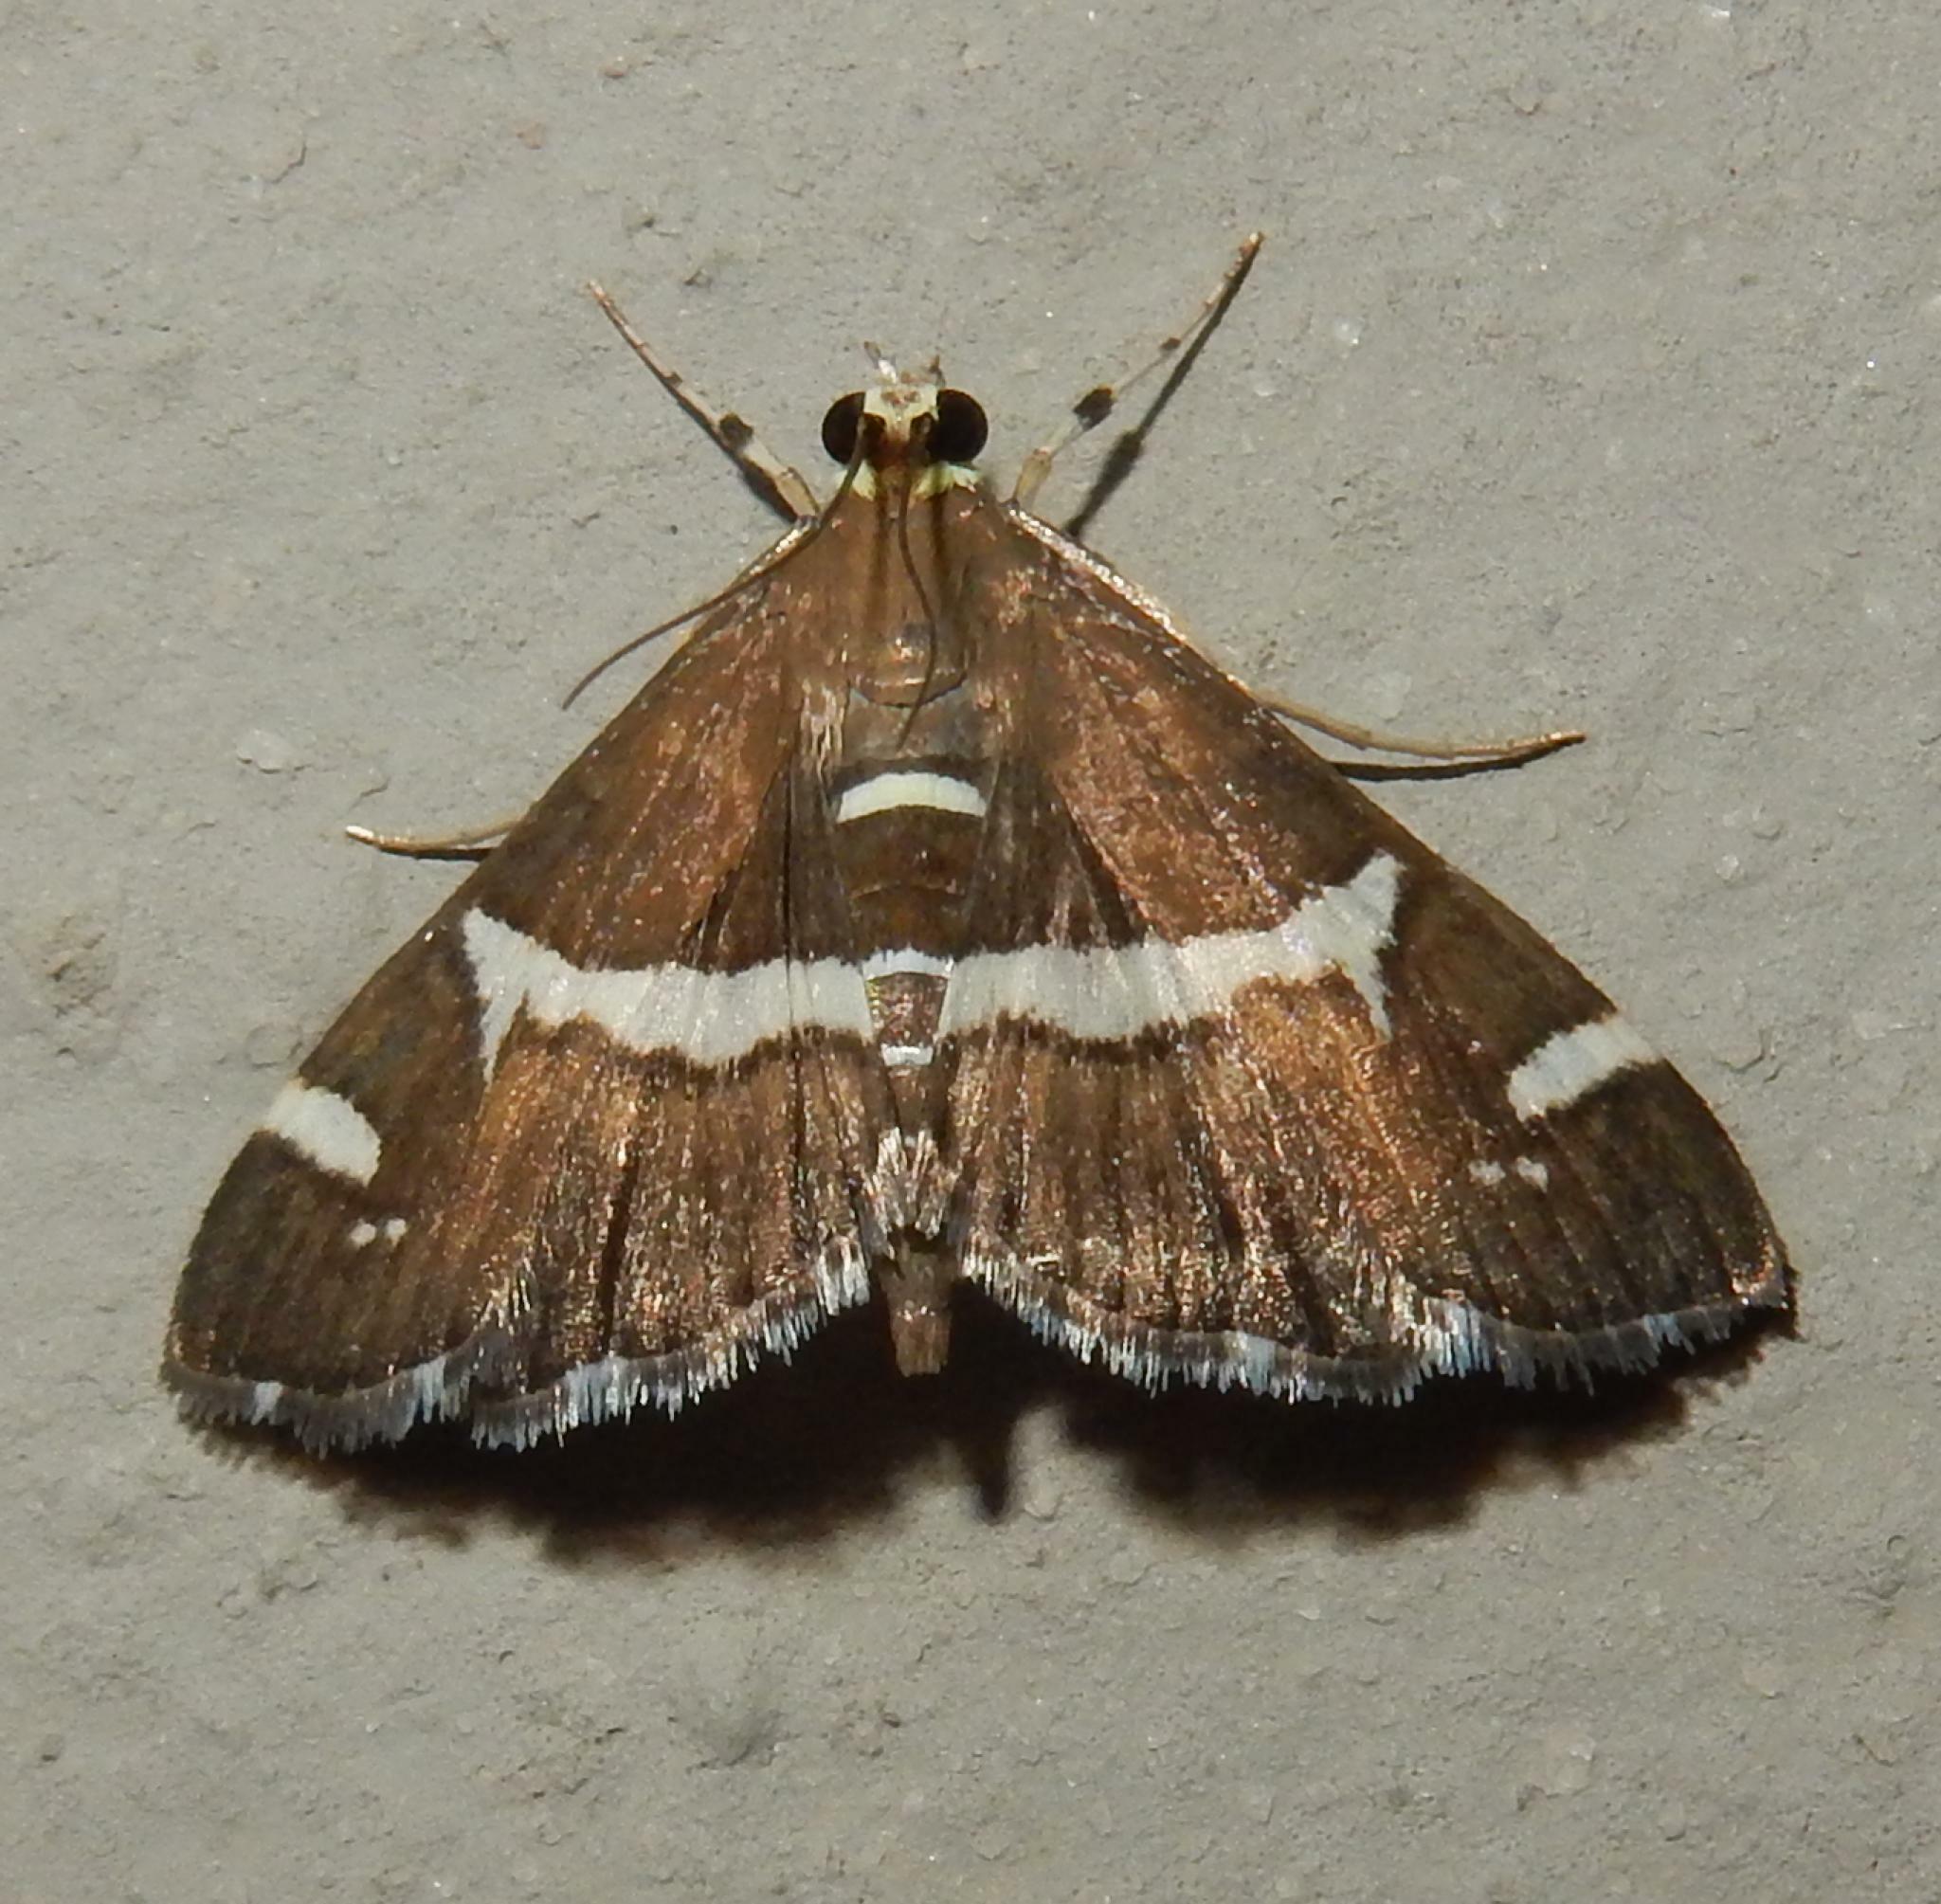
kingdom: Animalia
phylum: Arthropoda
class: Insecta
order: Lepidoptera
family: Crambidae
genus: Spoladea
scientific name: Spoladea recurvalis
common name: Beet webworm moth
